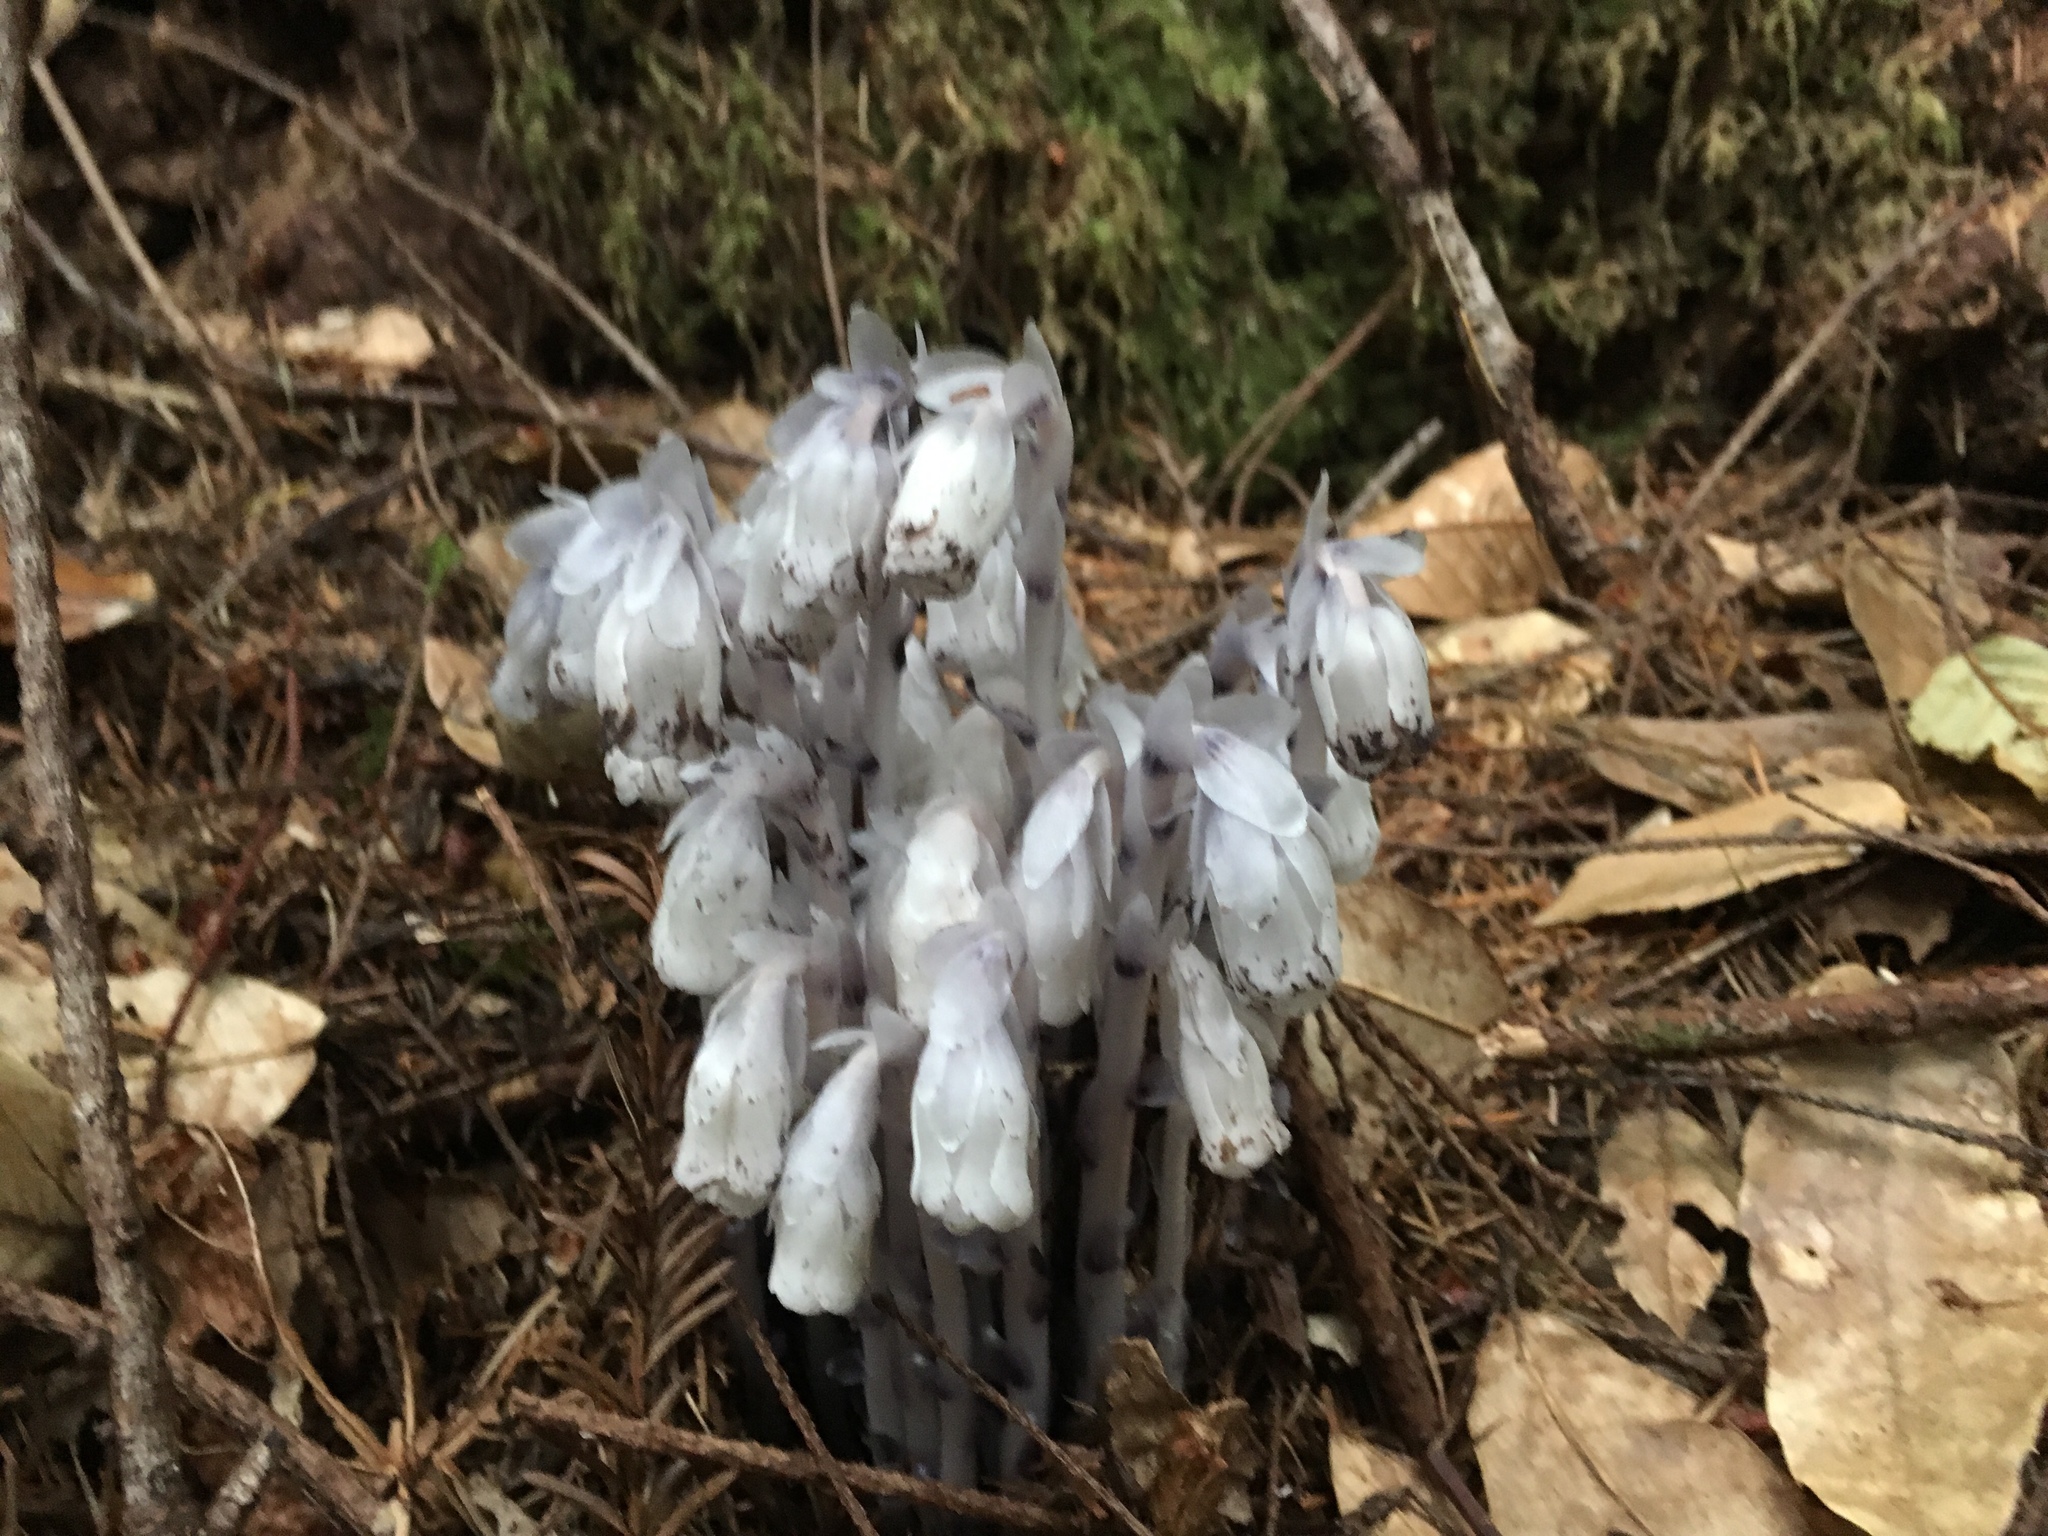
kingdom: Plantae
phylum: Tracheophyta
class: Magnoliopsida
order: Ericales
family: Ericaceae
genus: Monotropa
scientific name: Monotropa uniflora
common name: Convulsion root
